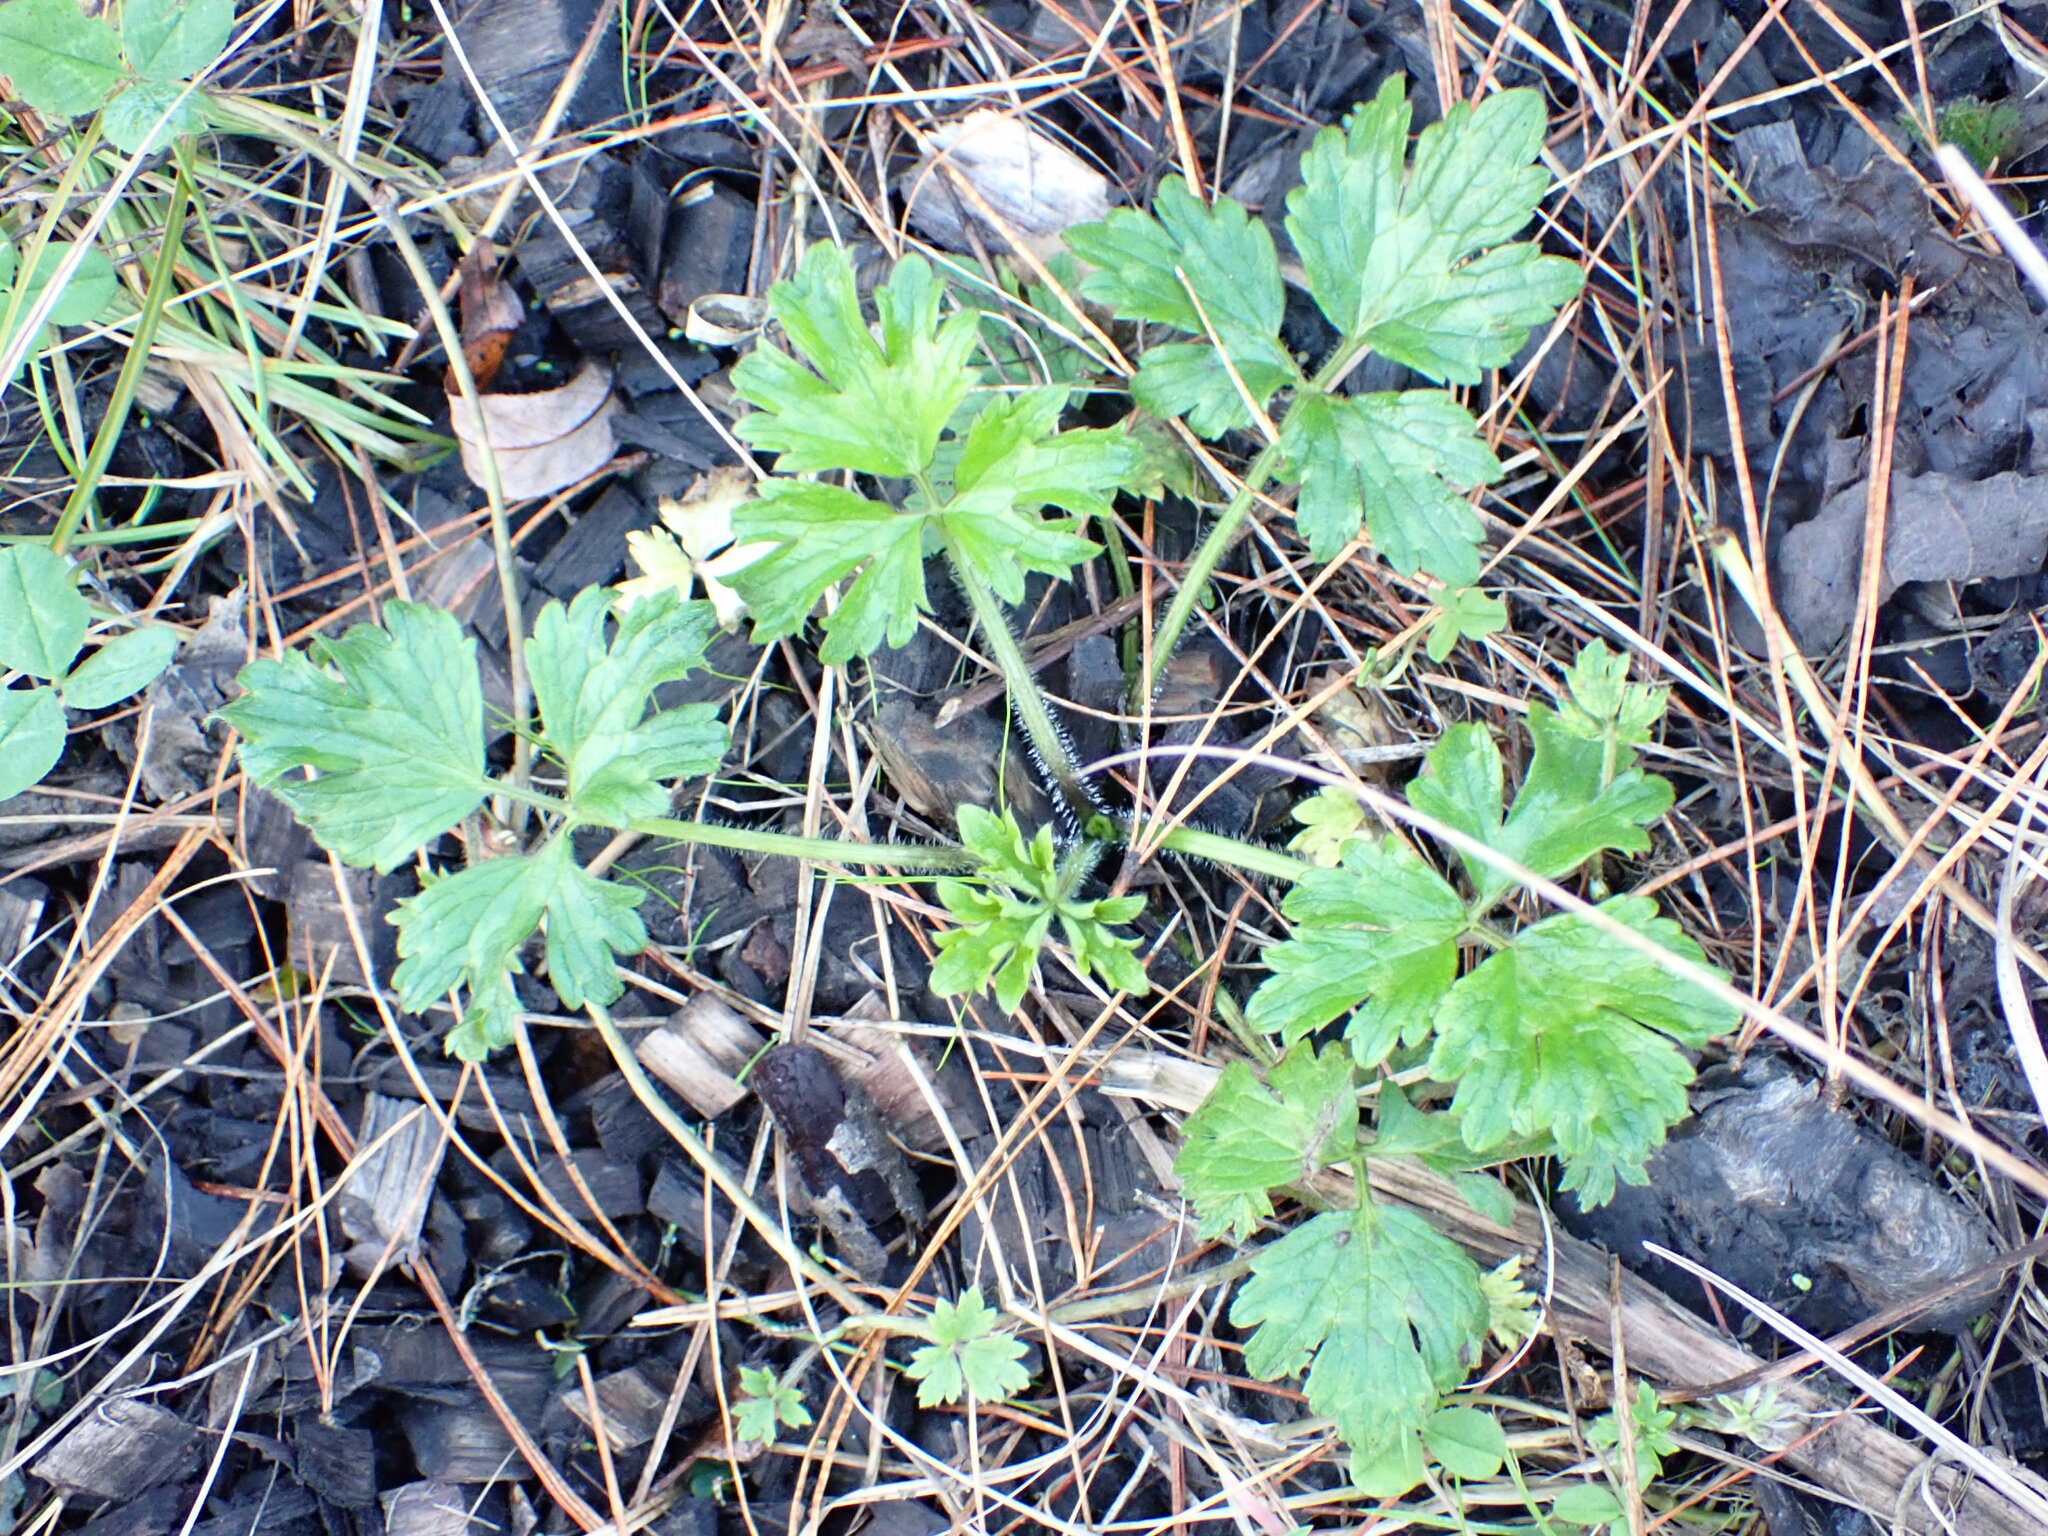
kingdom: Plantae
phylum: Tracheophyta
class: Magnoliopsida
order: Ranunculales
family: Ranunculaceae
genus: Ranunculus
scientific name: Ranunculus repens
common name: Creeping buttercup
